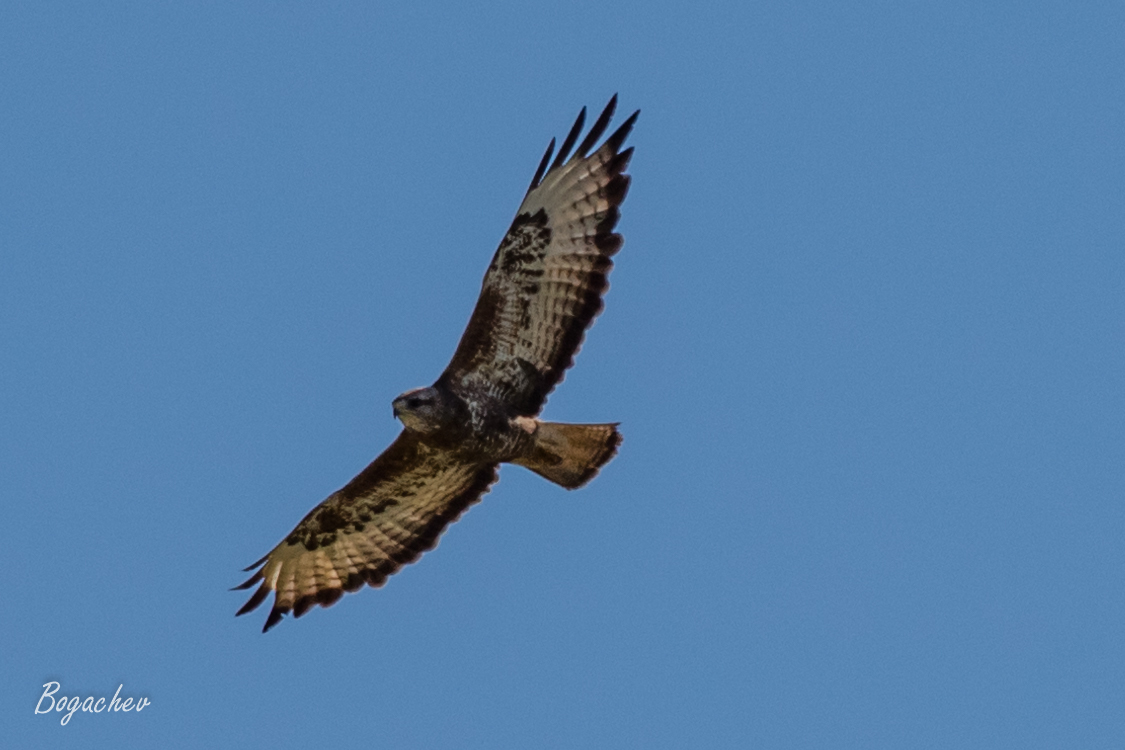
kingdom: Animalia
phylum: Chordata
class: Aves
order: Accipitriformes
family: Accipitridae
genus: Buteo
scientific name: Buteo buteo
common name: Common buzzard
